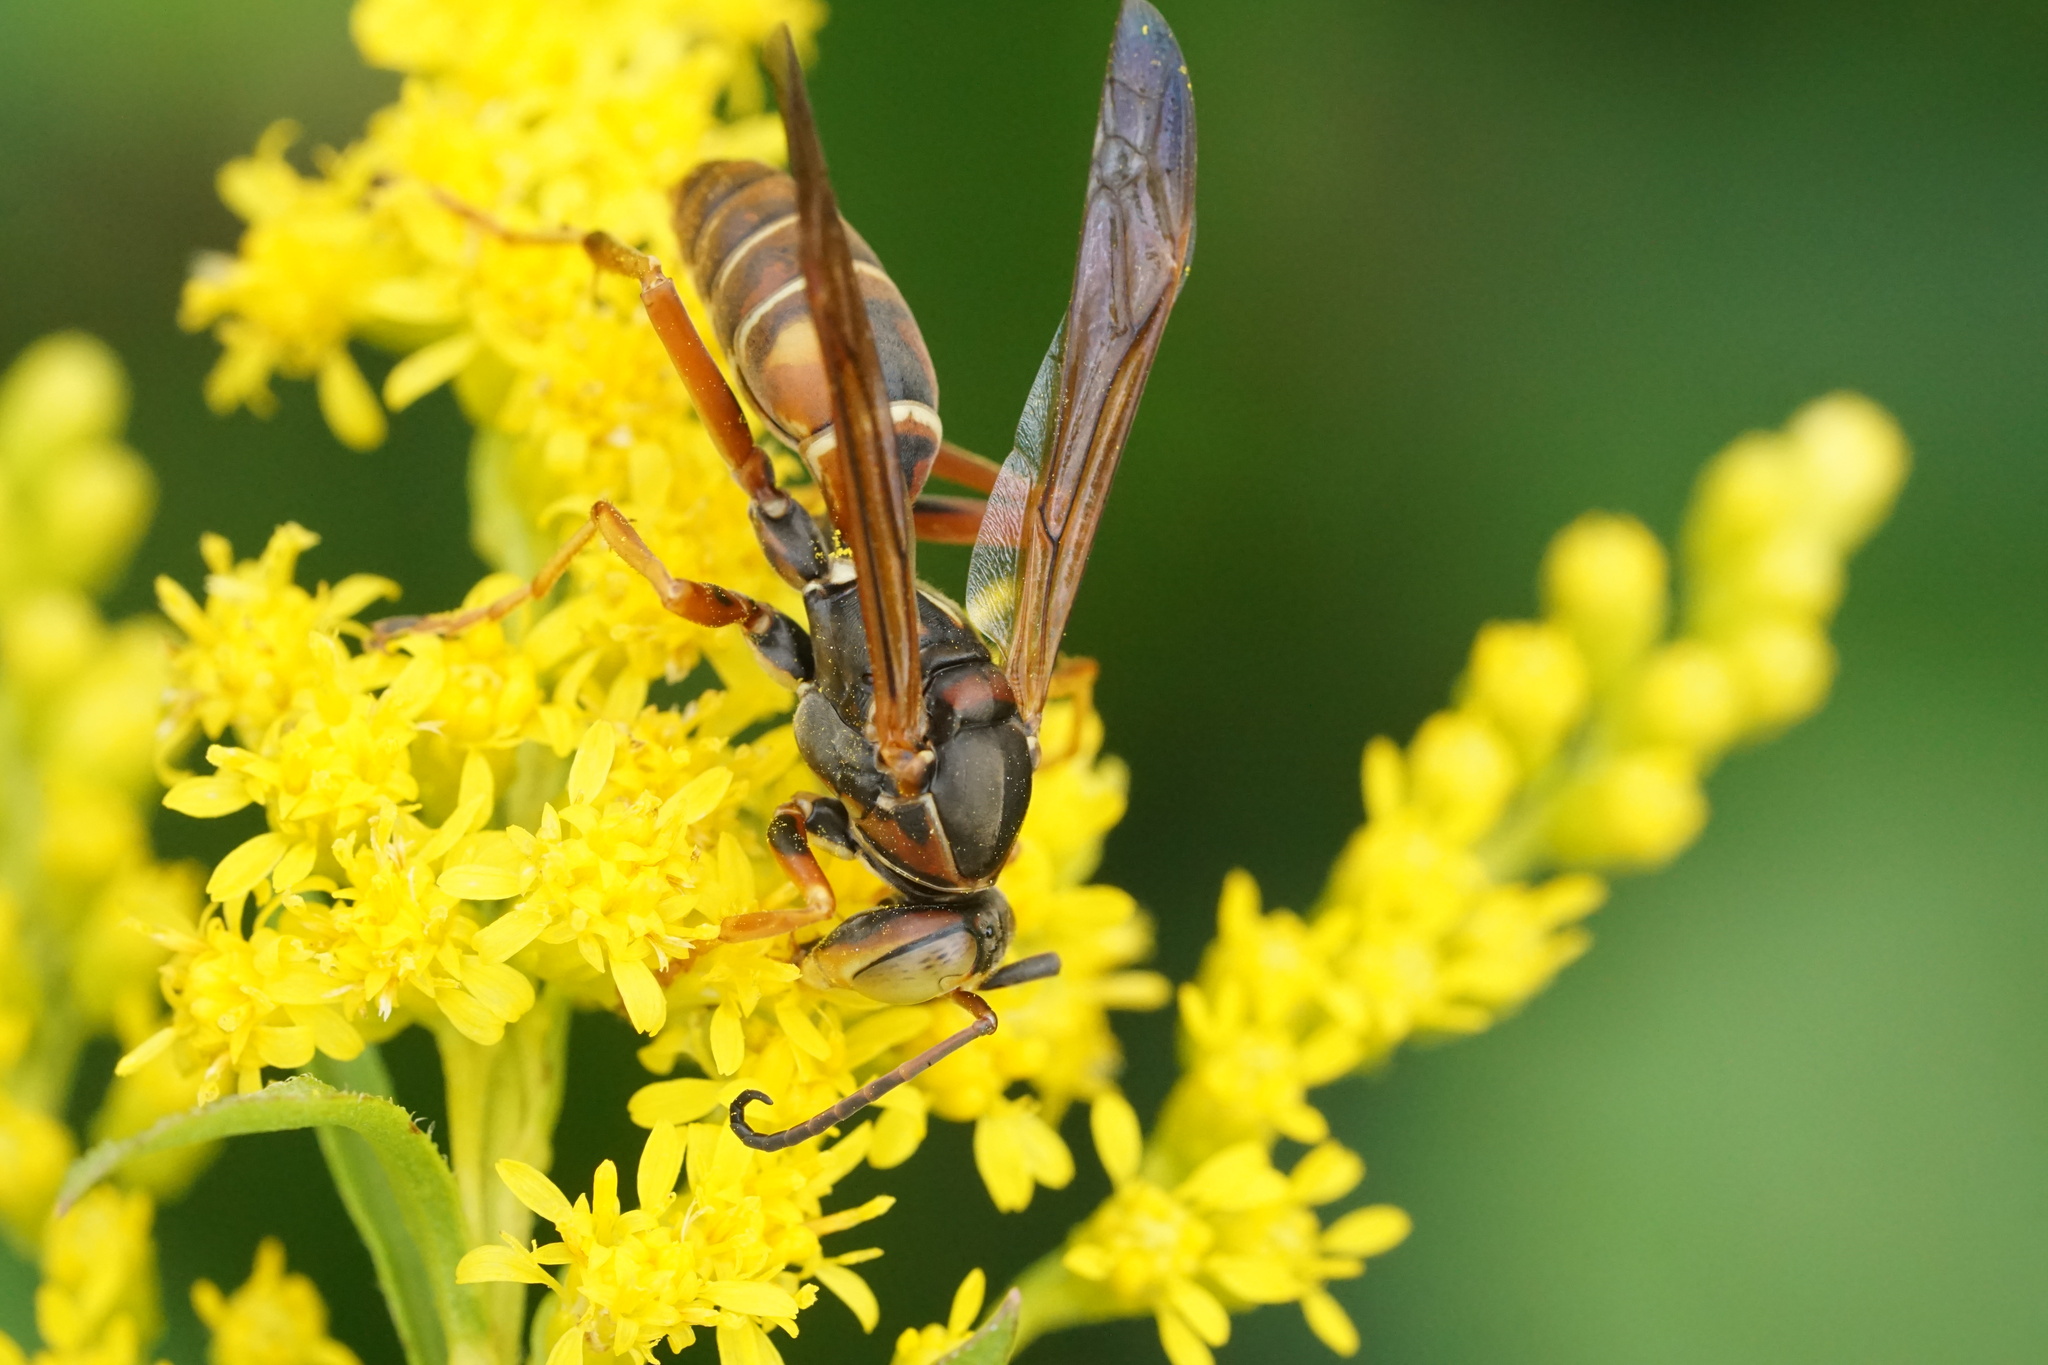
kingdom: Animalia
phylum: Arthropoda
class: Insecta
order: Hymenoptera
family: Eumenidae
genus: Polistes
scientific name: Polistes fuscatus
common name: Dark paper wasp
